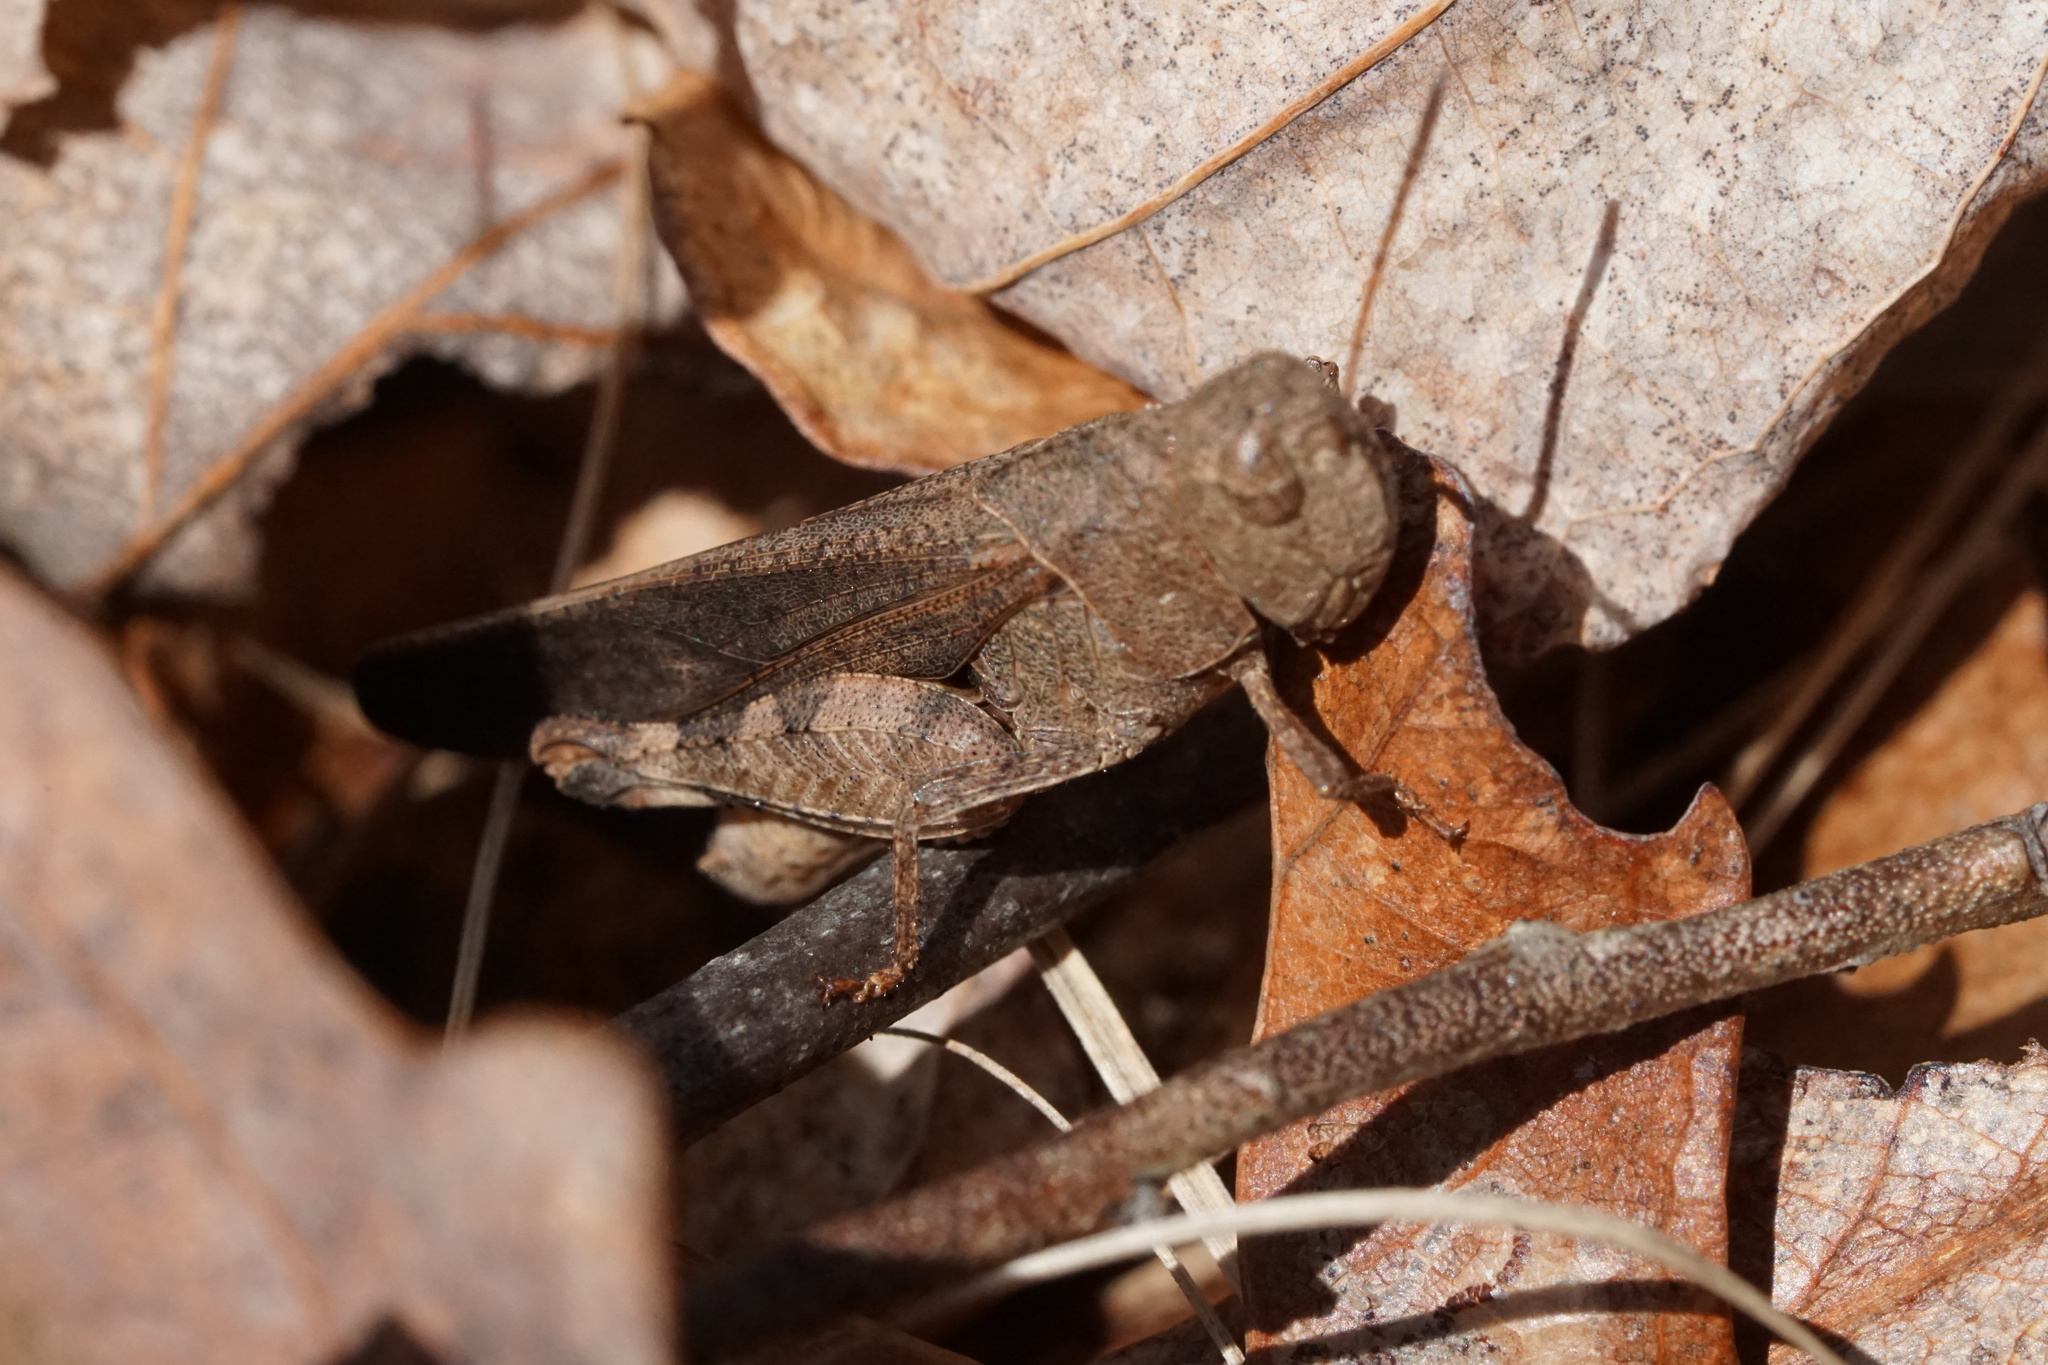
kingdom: Animalia
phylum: Arthropoda
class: Insecta
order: Orthoptera
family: Acrididae
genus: Arphia
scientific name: Arphia sulphurea
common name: Spring yellow-winged locust
